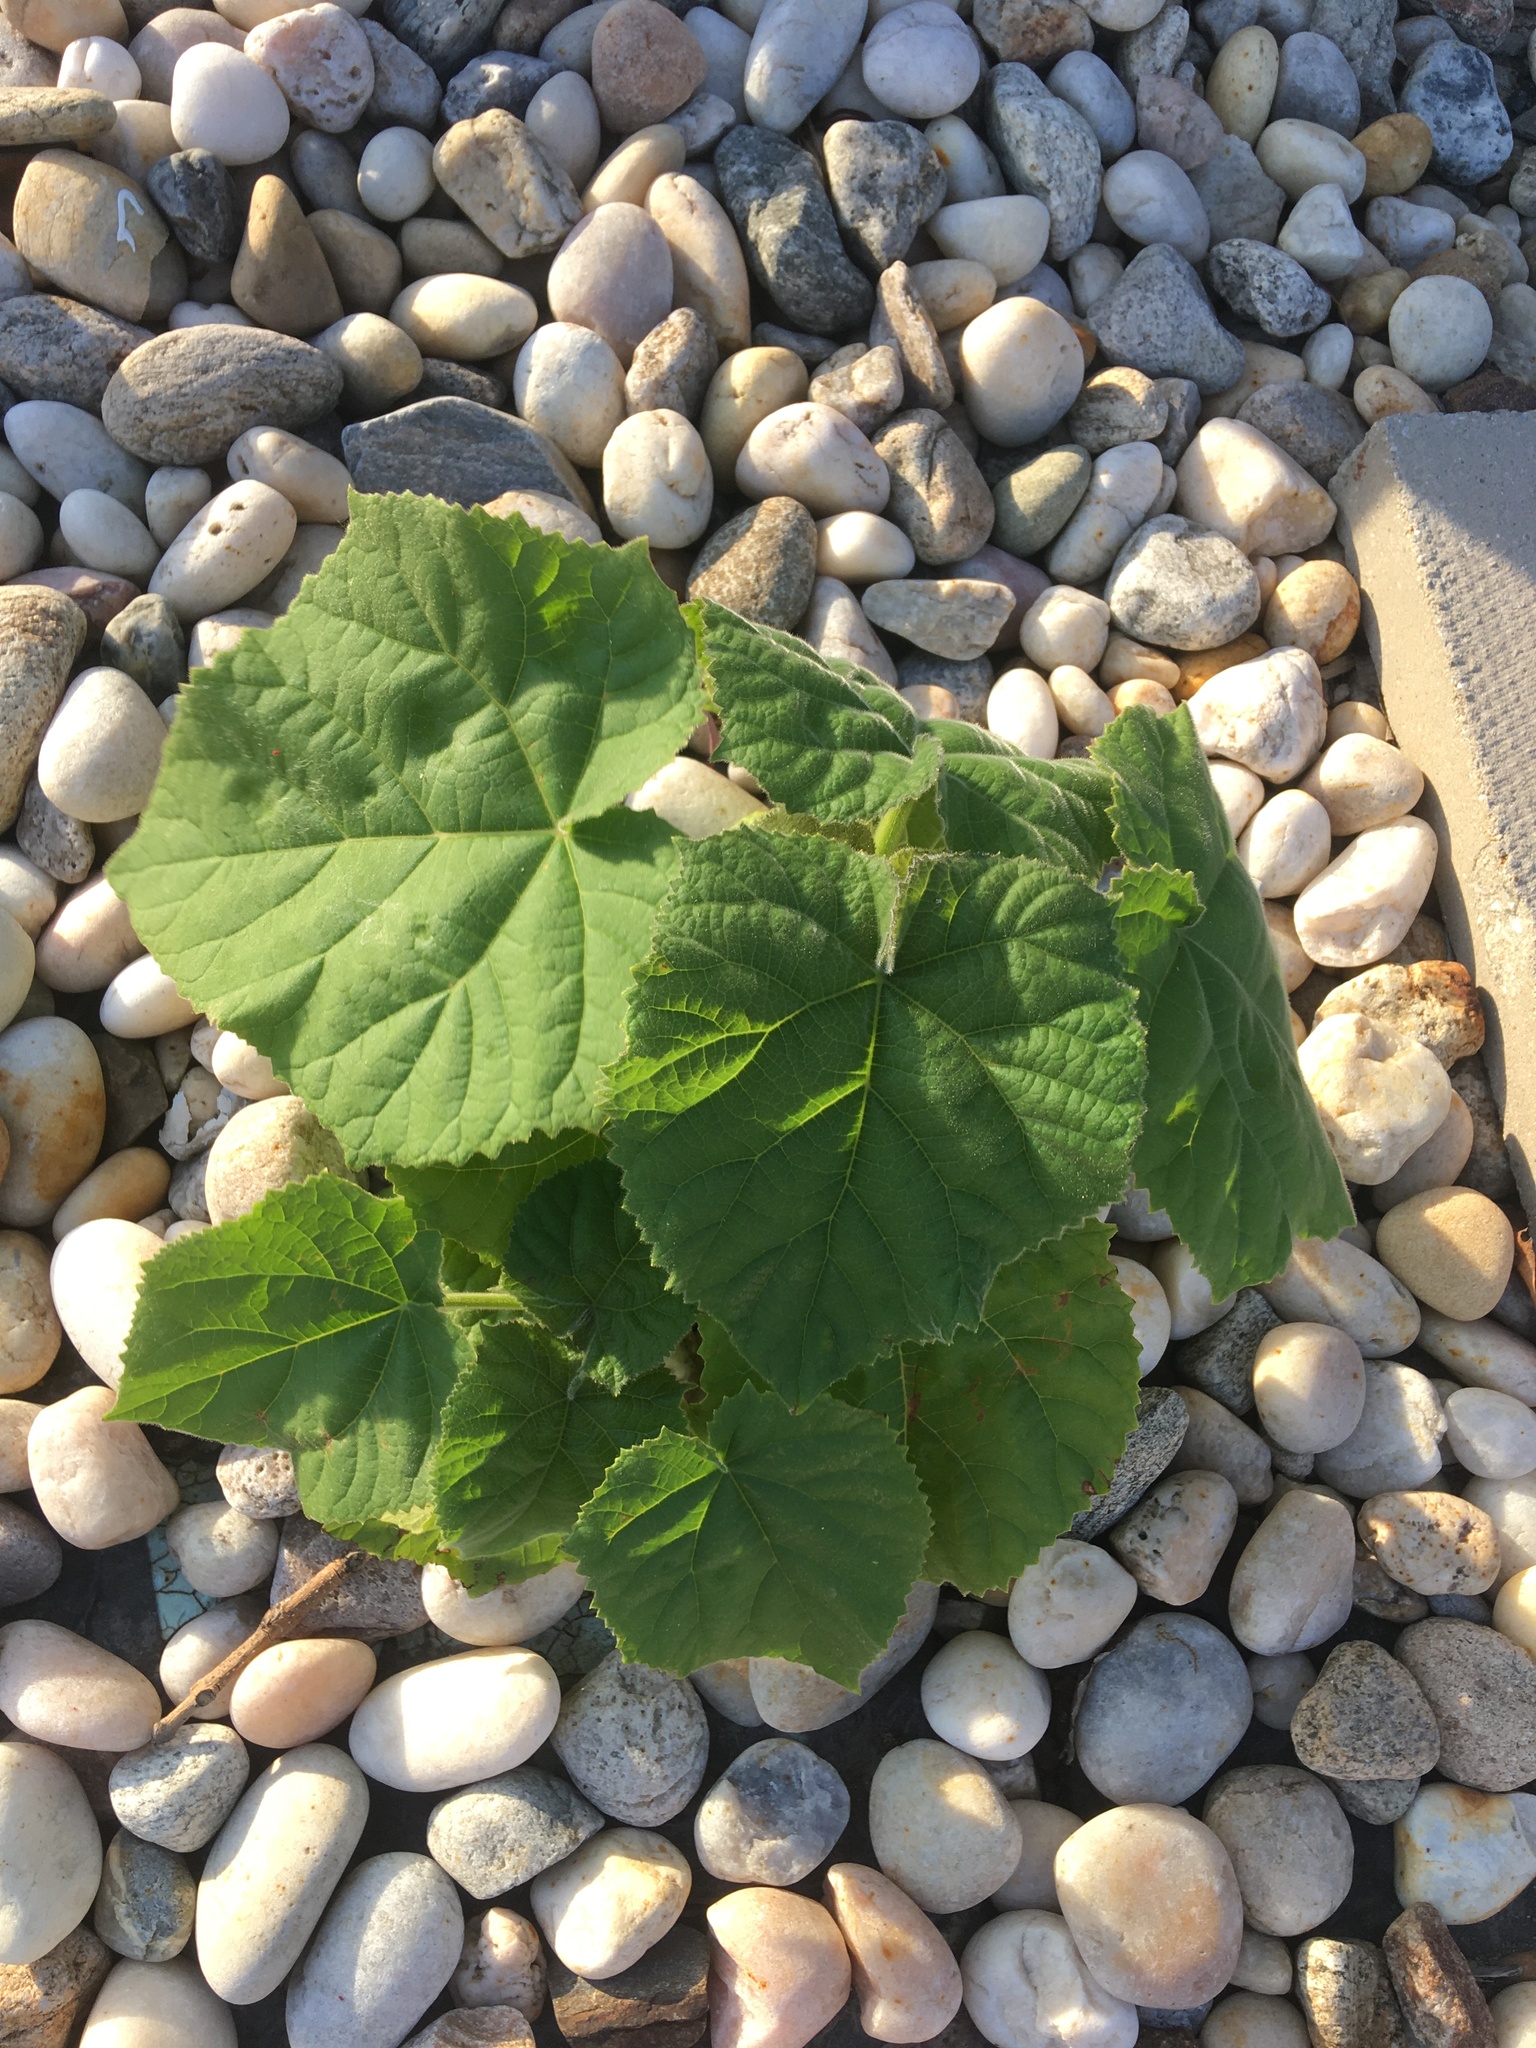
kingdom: Plantae
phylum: Tracheophyta
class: Magnoliopsida
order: Lamiales
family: Paulowniaceae
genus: Paulownia
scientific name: Paulownia tomentosa
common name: Foxglove-tree
